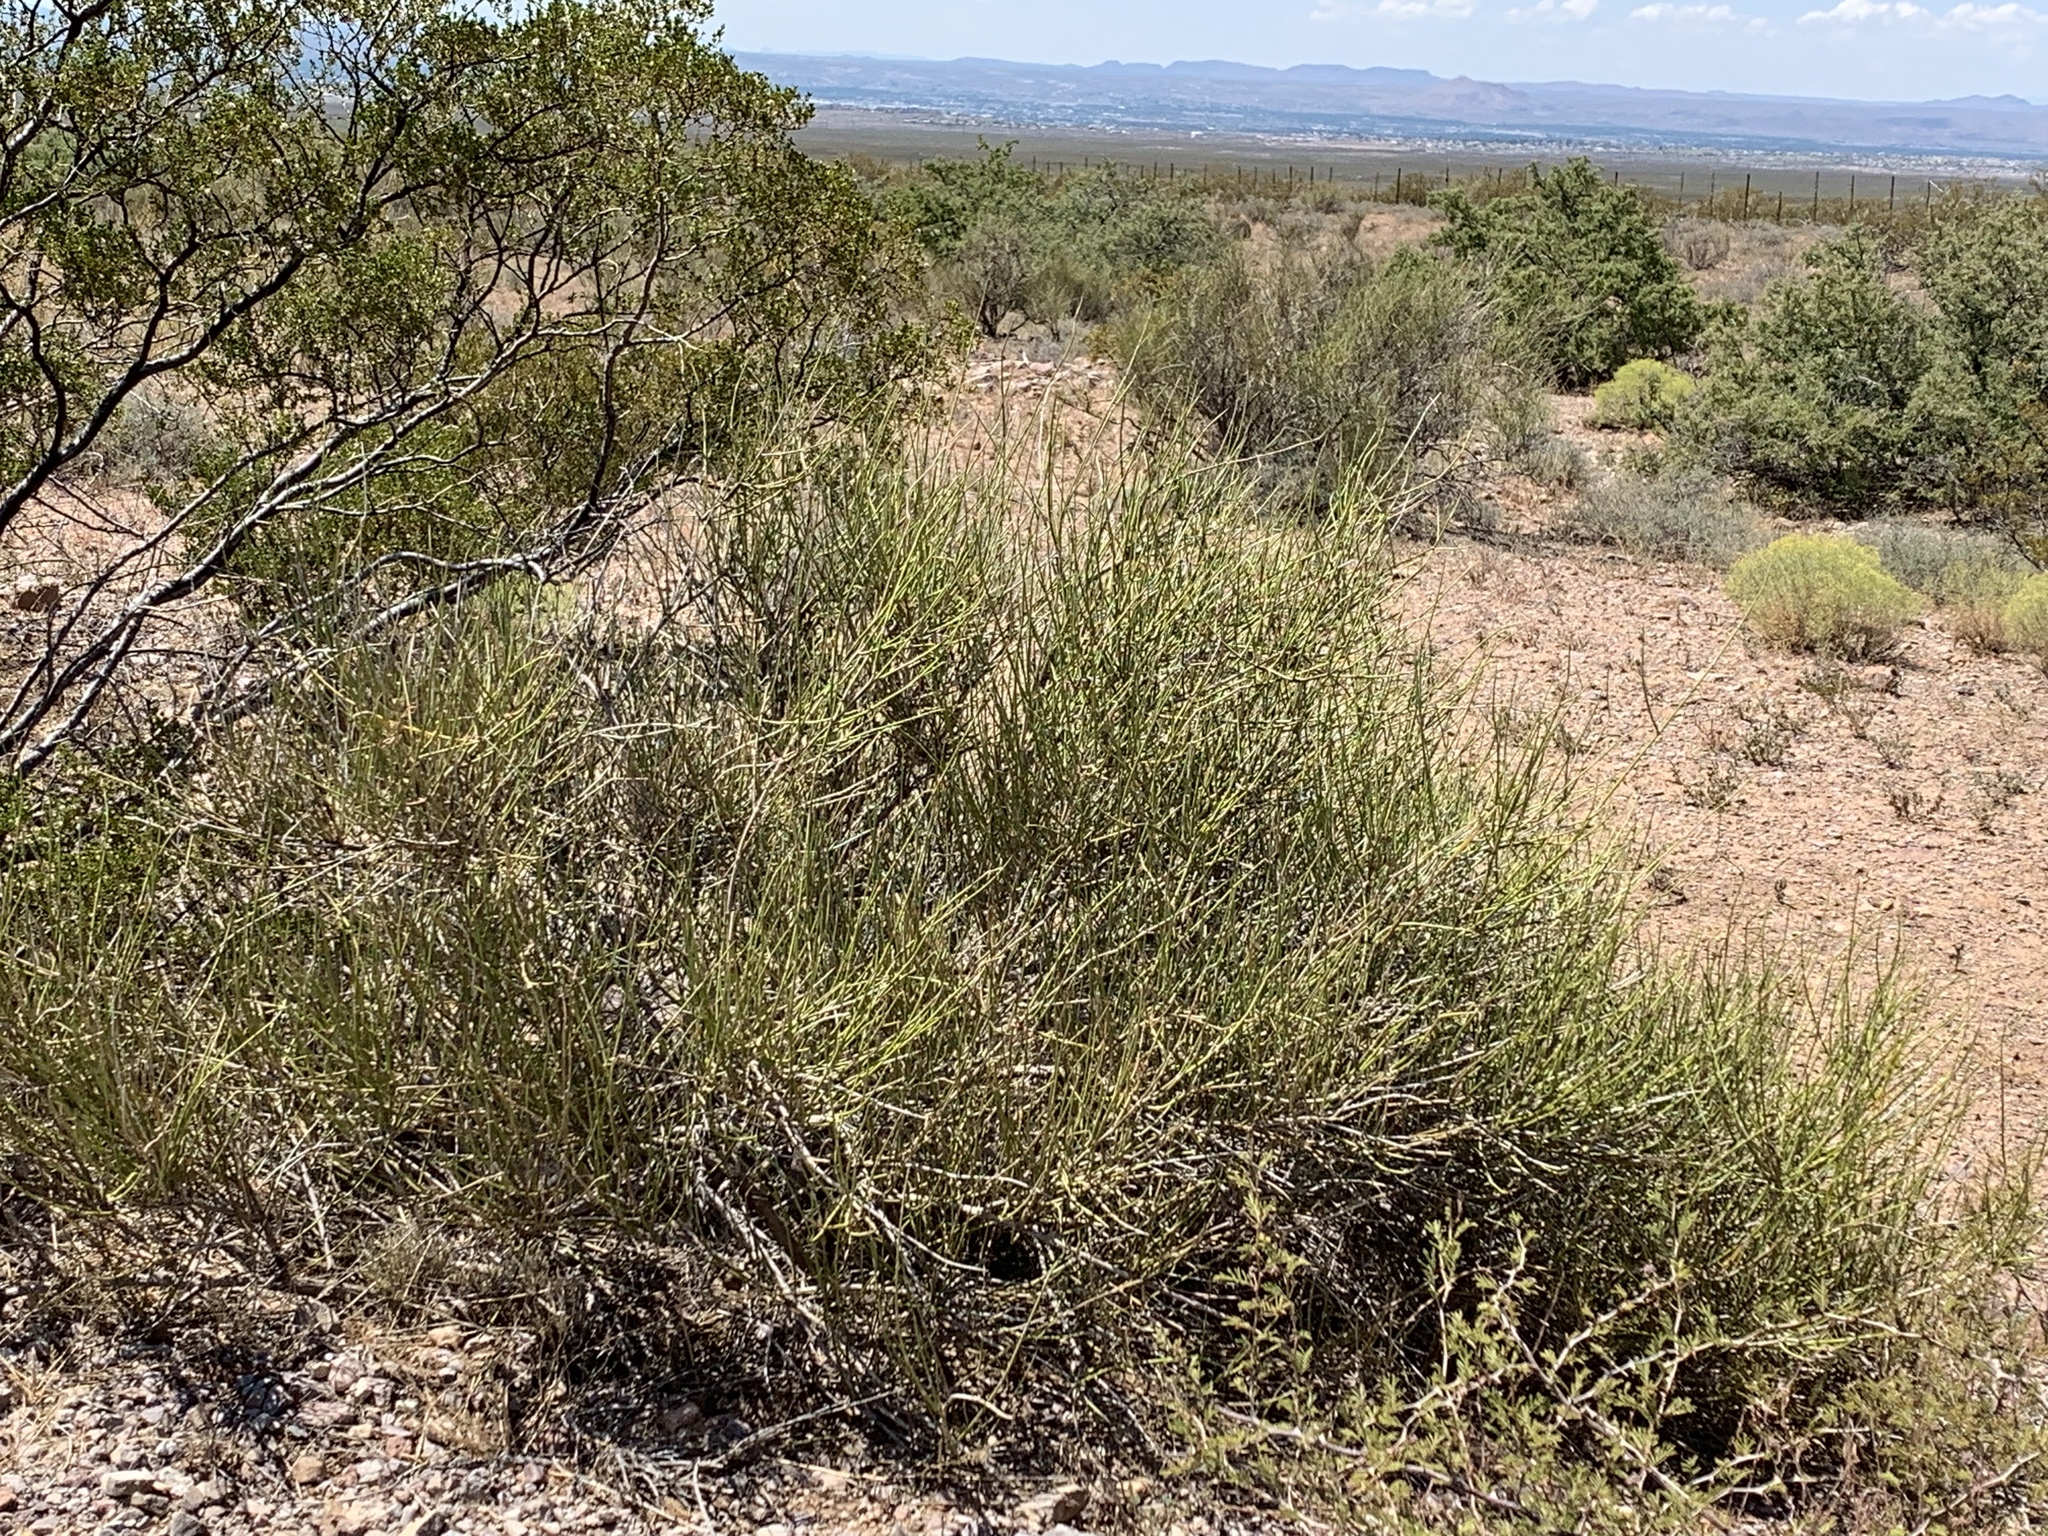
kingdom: Plantae
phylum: Tracheophyta
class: Gnetopsida
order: Ephedrales
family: Ephedraceae
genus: Ephedra
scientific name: Ephedra trifurca
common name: Mexican-tea
